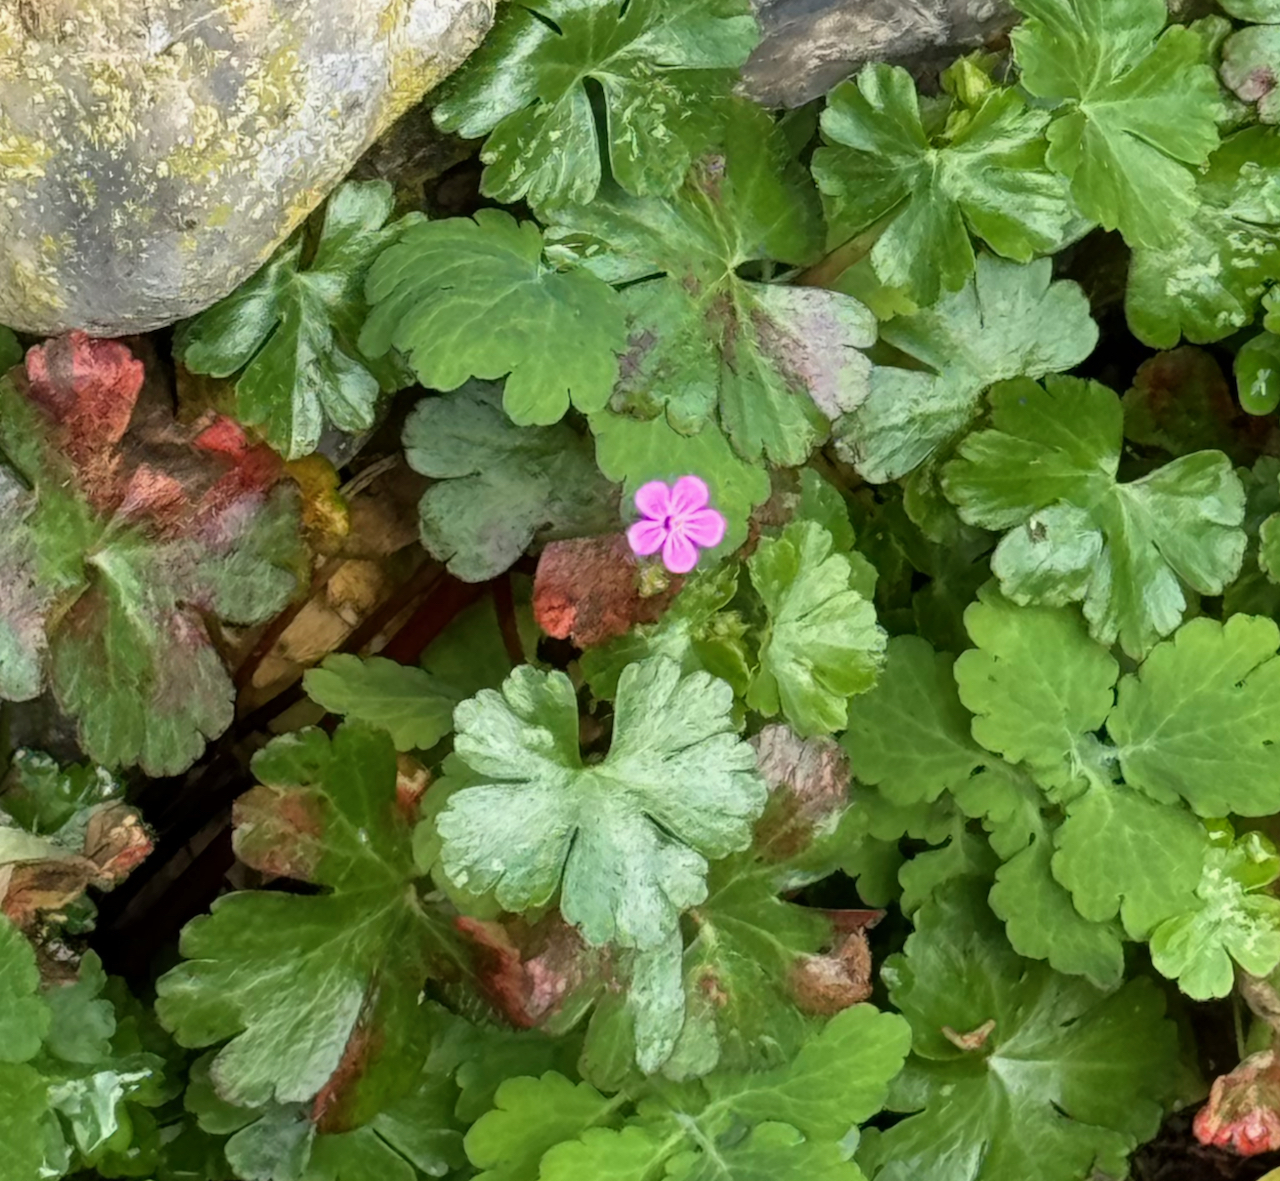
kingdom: Plantae
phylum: Tracheophyta
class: Magnoliopsida
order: Geraniales
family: Geraniaceae
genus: Geranium
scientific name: Geranium lucidum
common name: Shining crane's-bill
